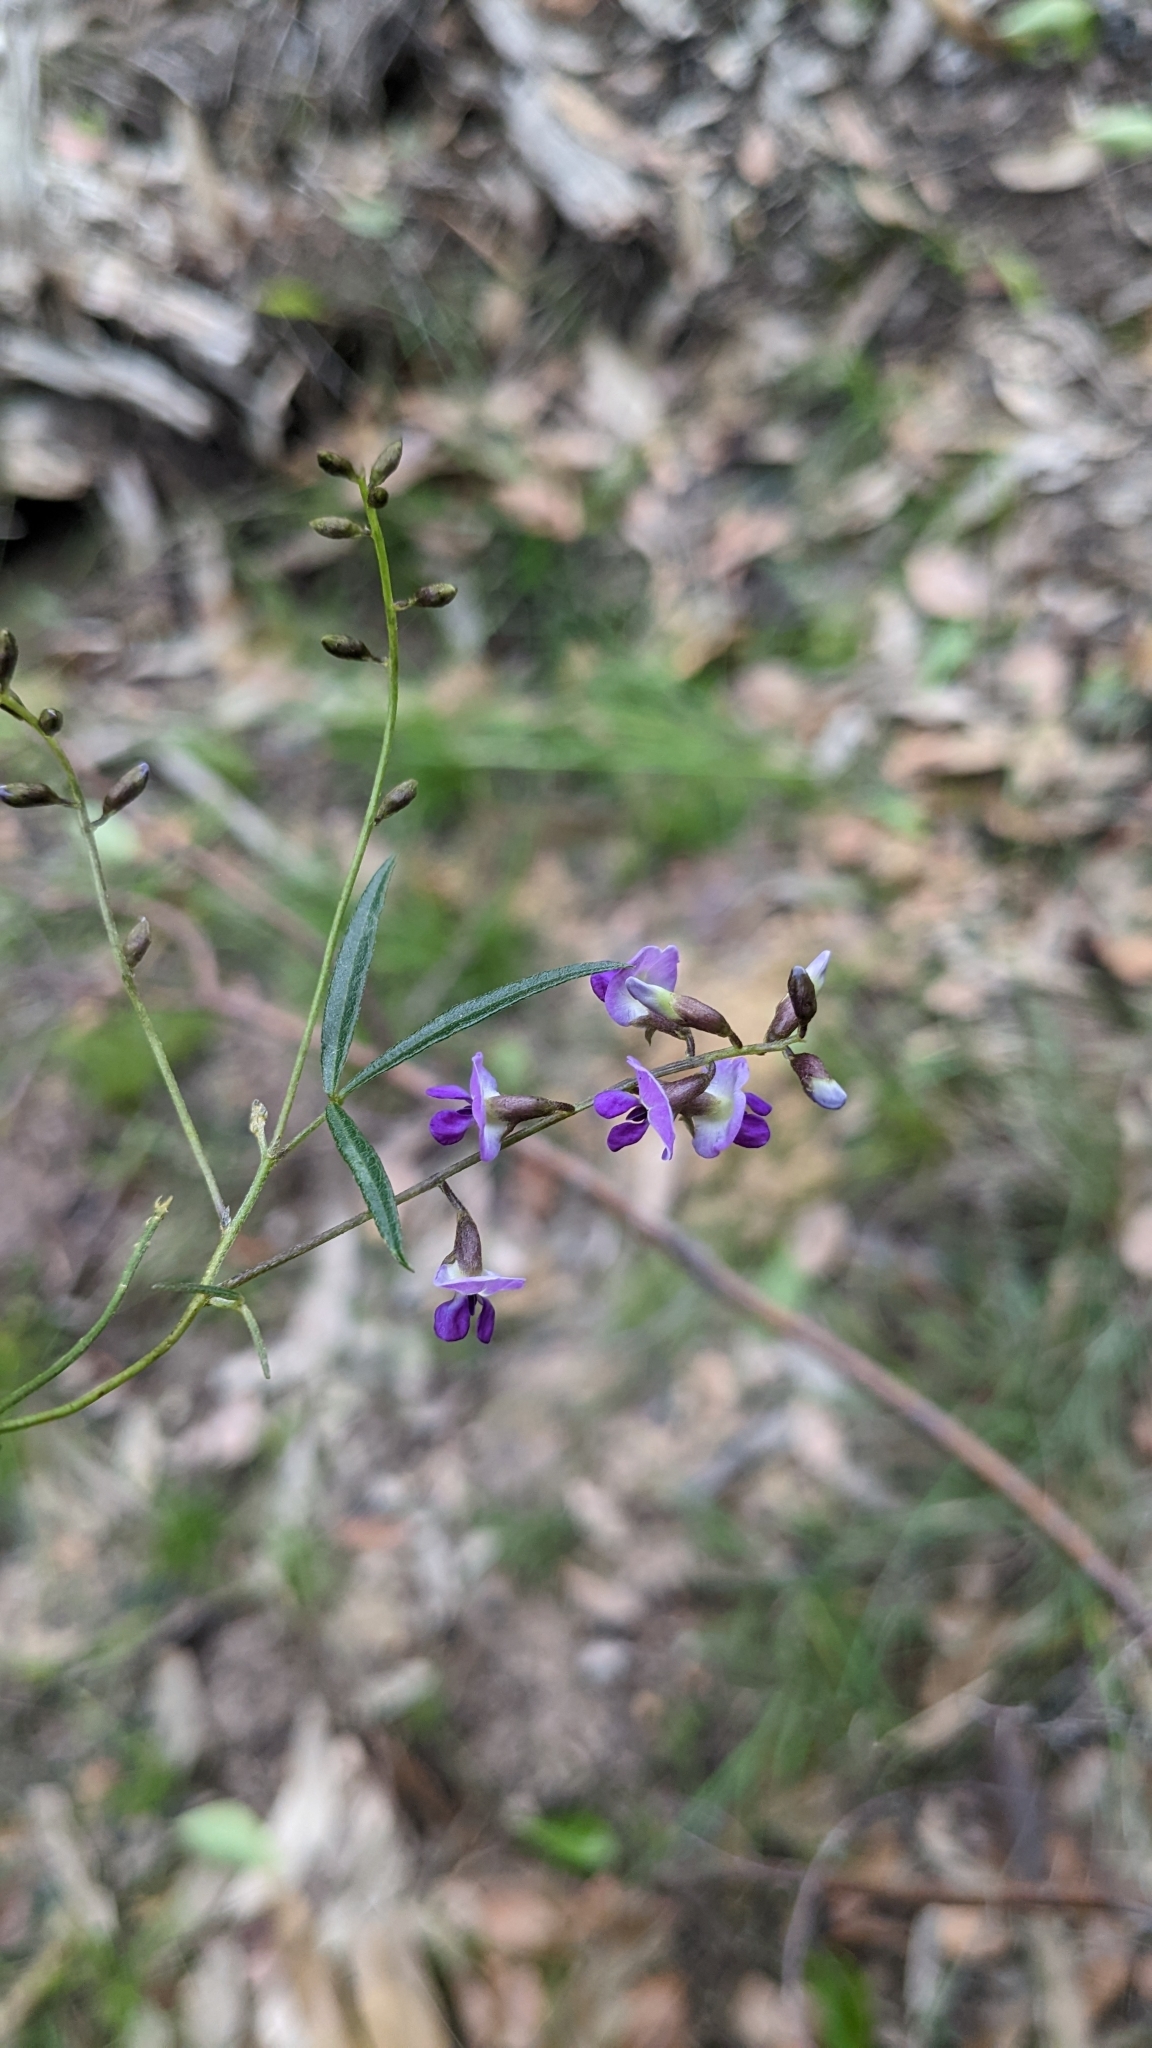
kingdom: Plantae
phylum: Tracheophyta
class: Magnoliopsida
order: Fabales
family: Fabaceae
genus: Glycine
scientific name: Glycine clandestina
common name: Twining glycine
